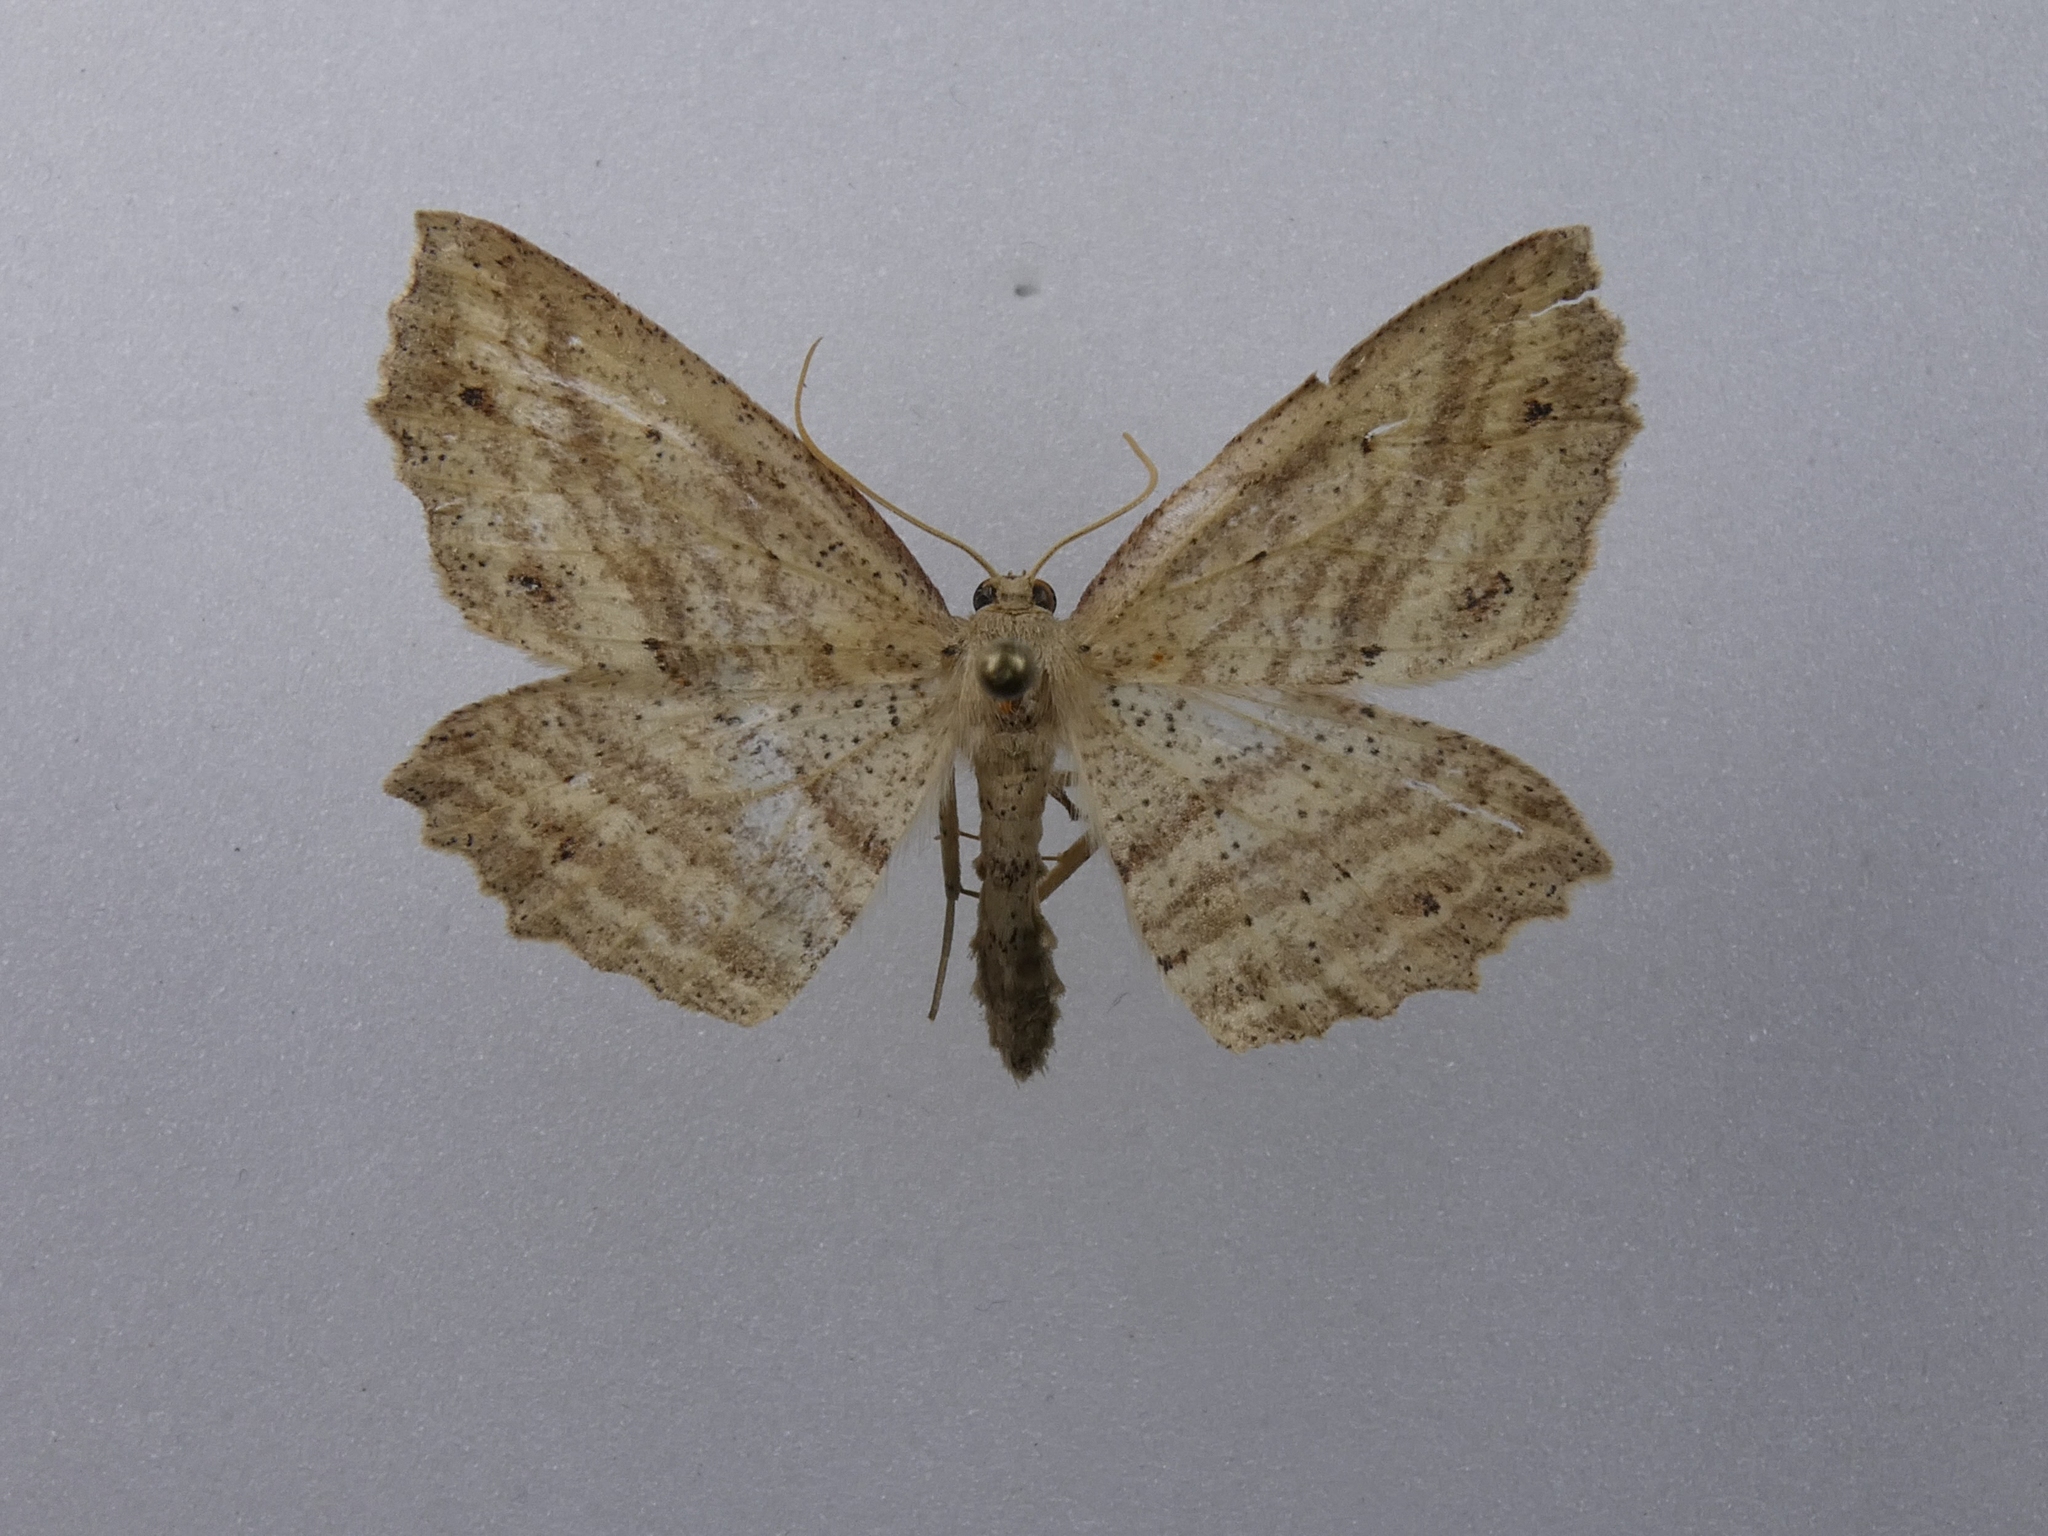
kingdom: Animalia
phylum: Arthropoda
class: Insecta
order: Lepidoptera
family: Geometridae
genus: Xyridacma
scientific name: Xyridacma veronicae
